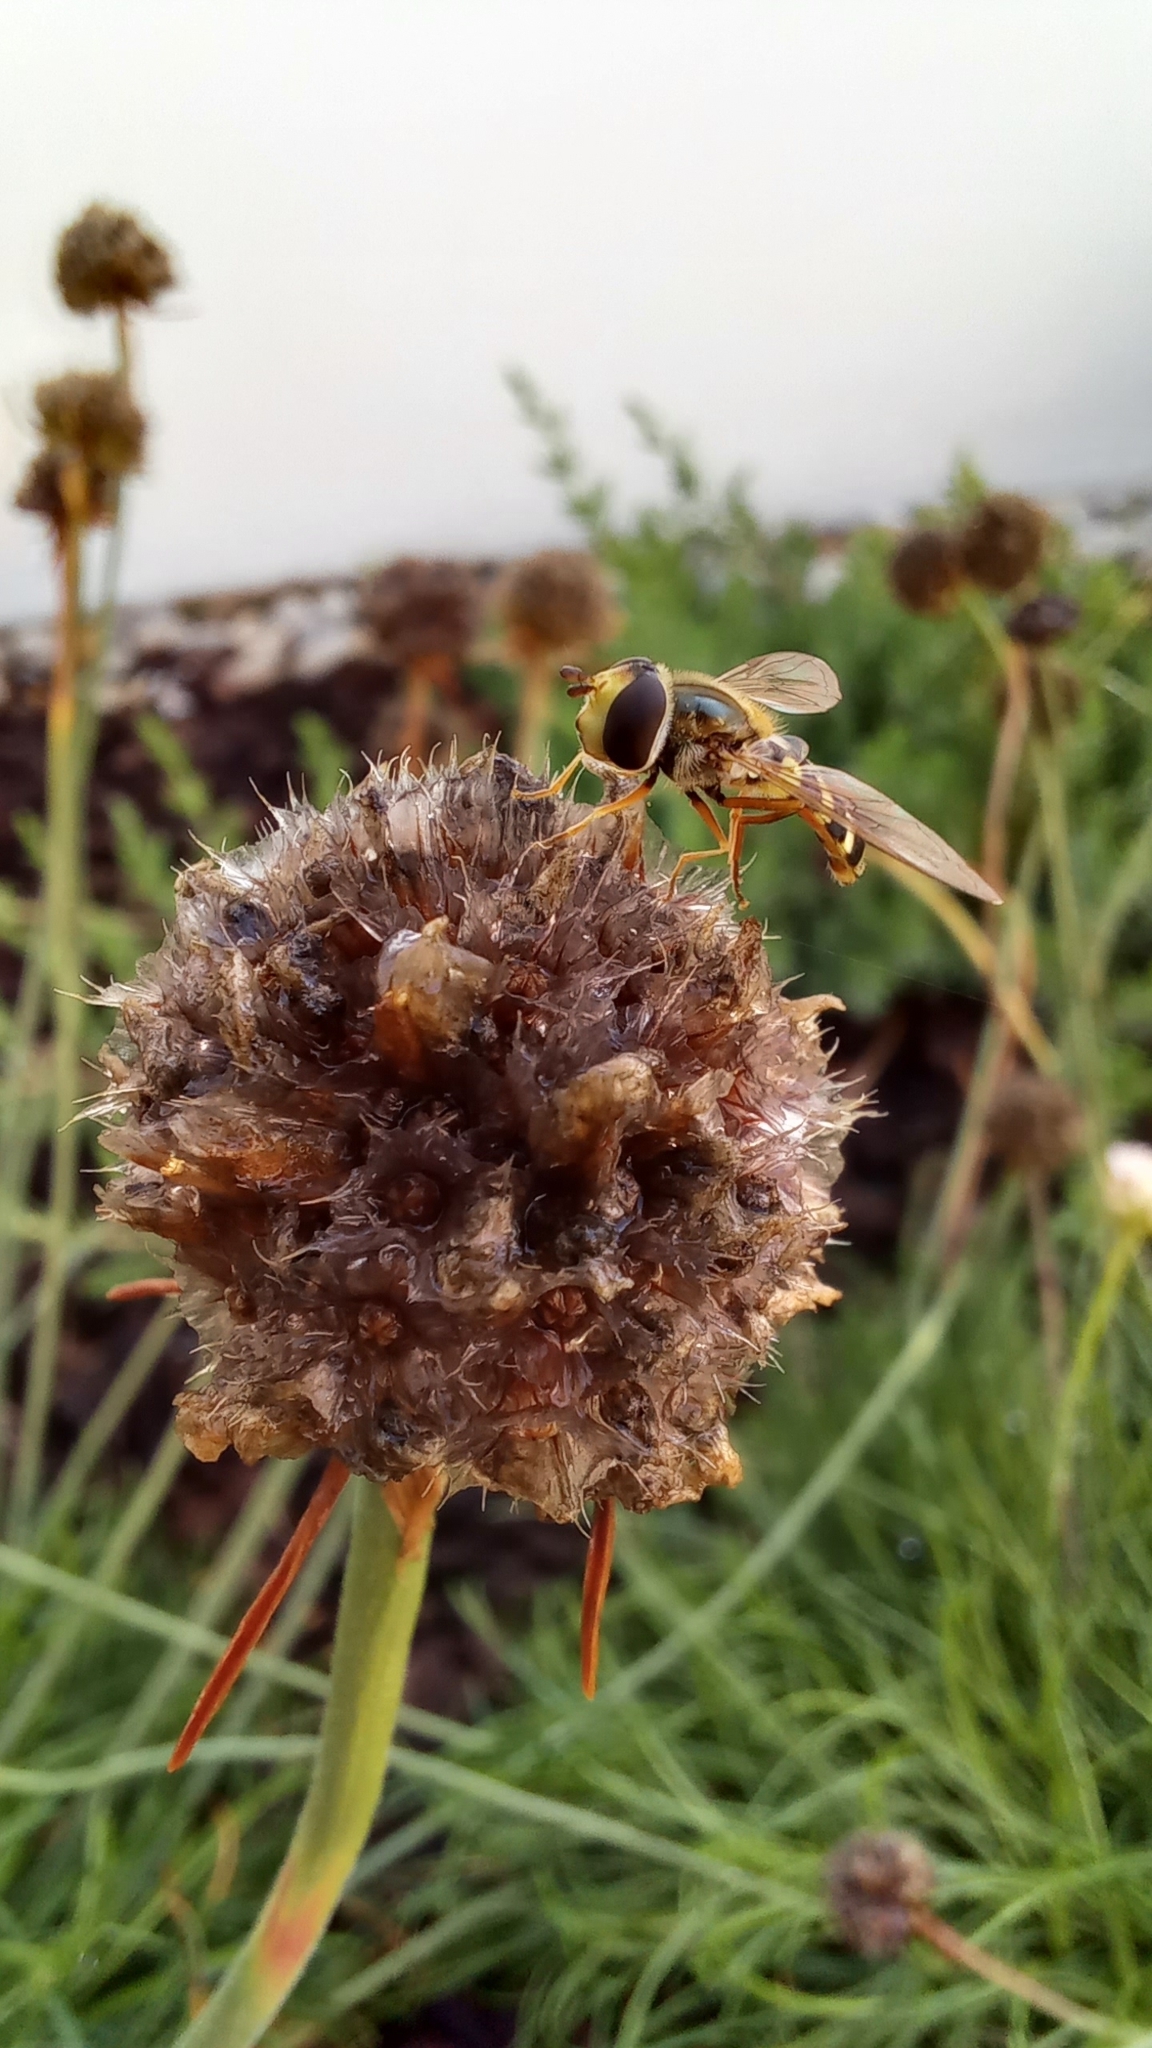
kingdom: Animalia
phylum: Arthropoda
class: Insecta
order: Diptera
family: Syrphidae
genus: Eupeodes
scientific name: Eupeodes corollae
